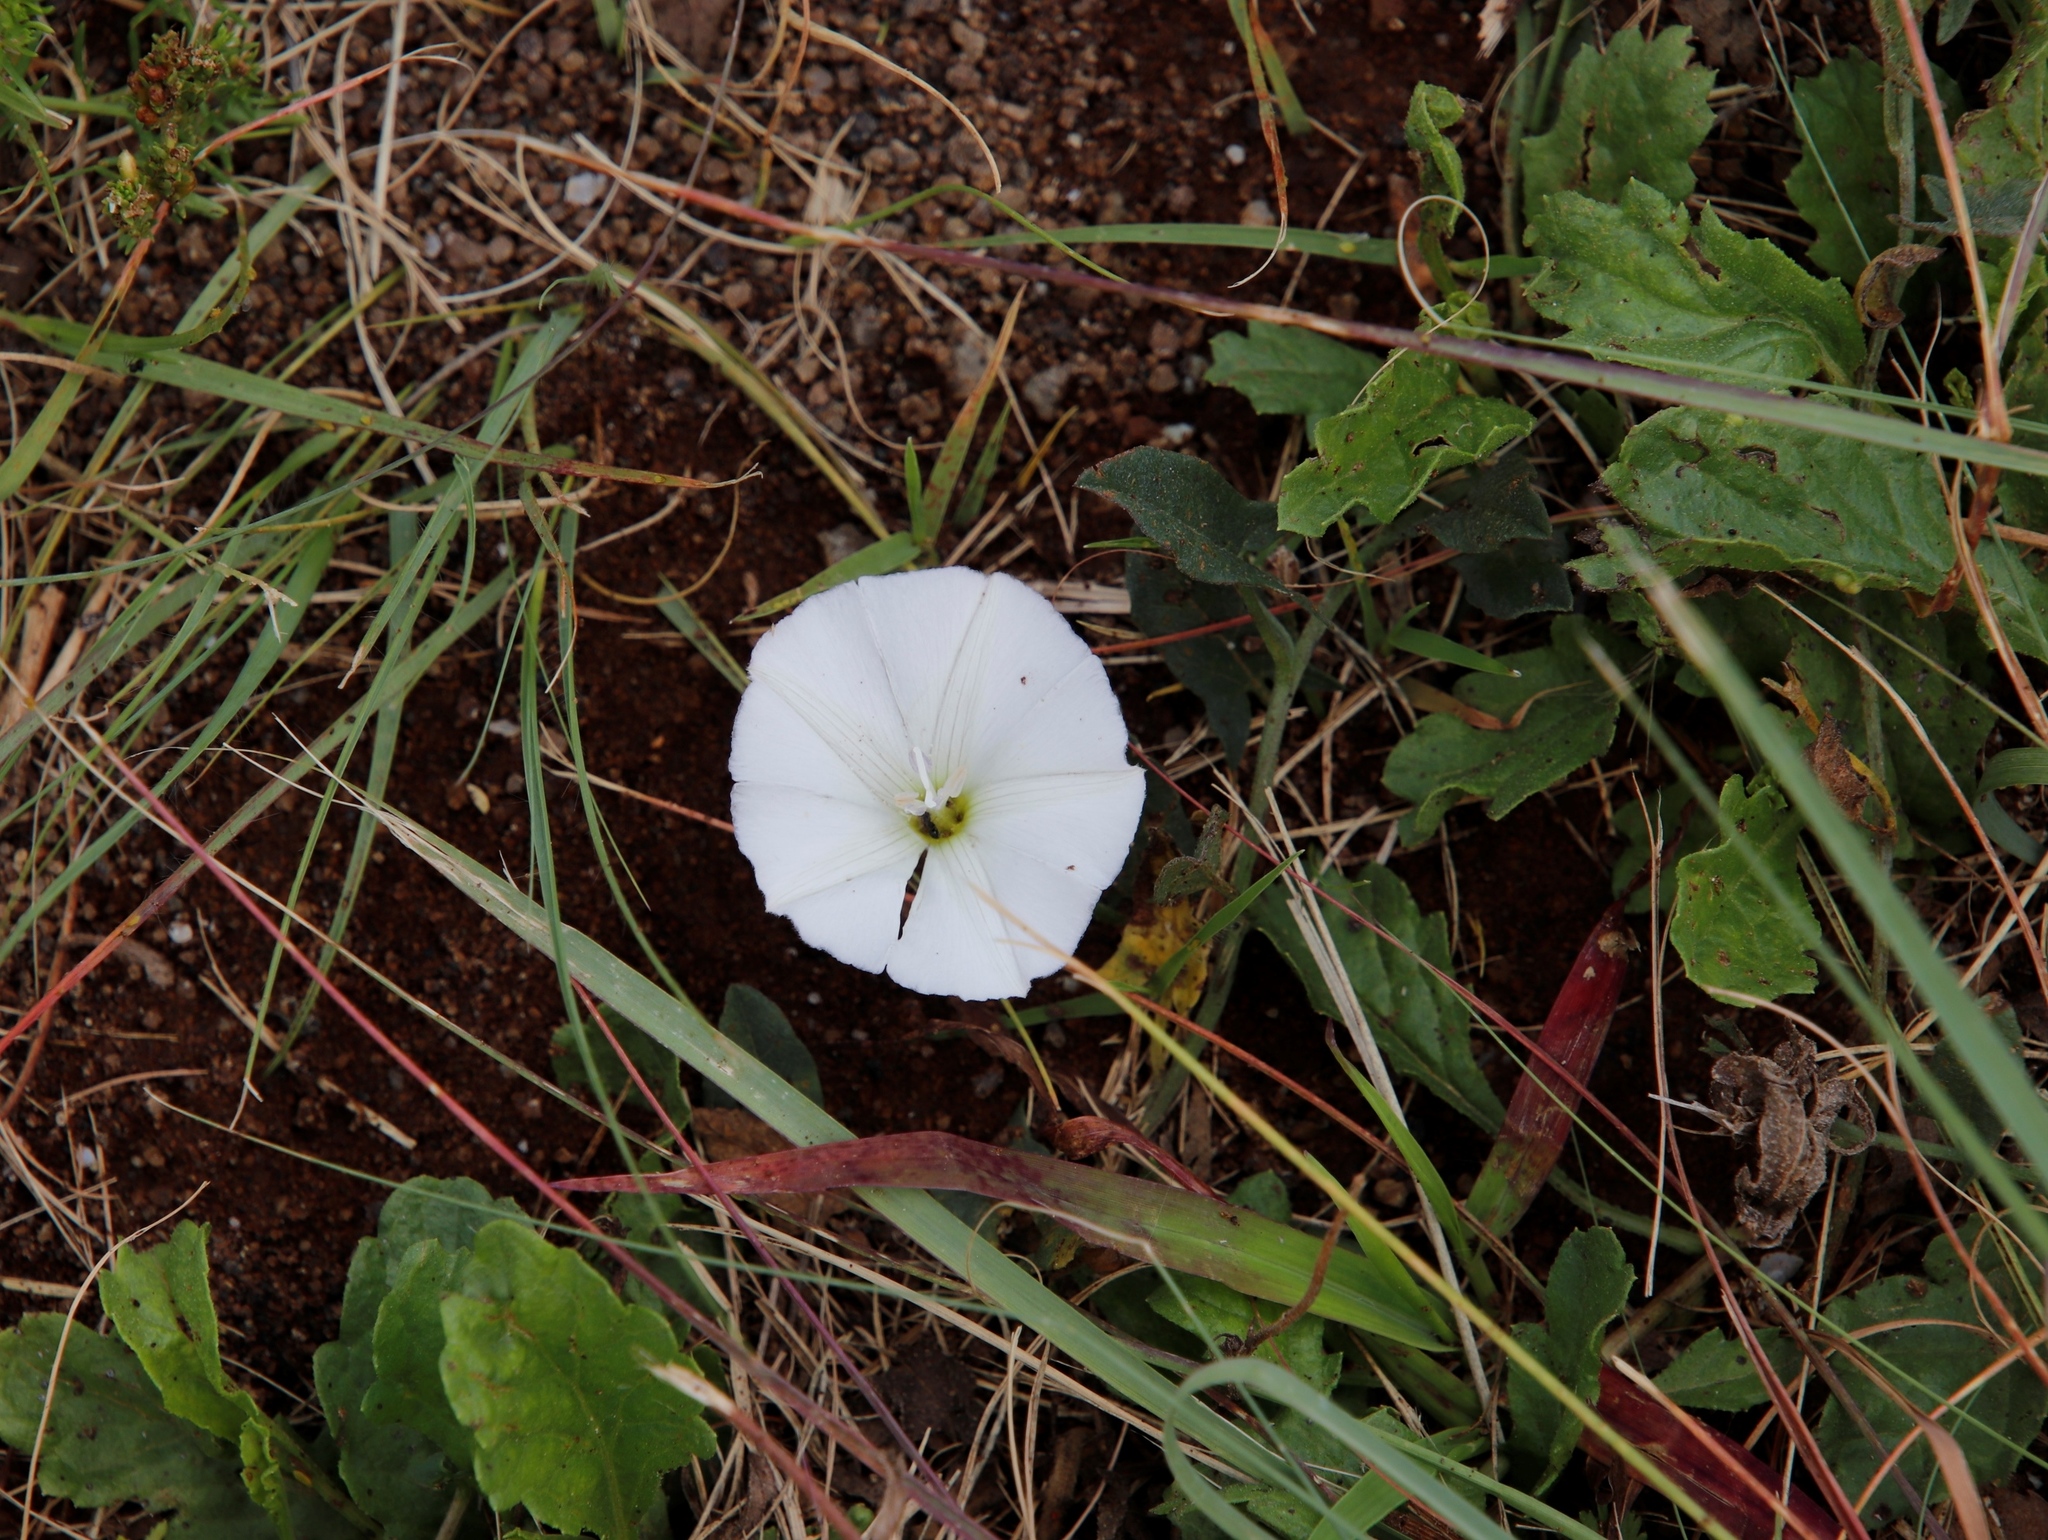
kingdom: Plantae
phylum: Tracheophyta
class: Magnoliopsida
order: Solanales
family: Convolvulaceae
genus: Convolvulus
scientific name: Convolvulus arvensis
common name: Field bindweed
